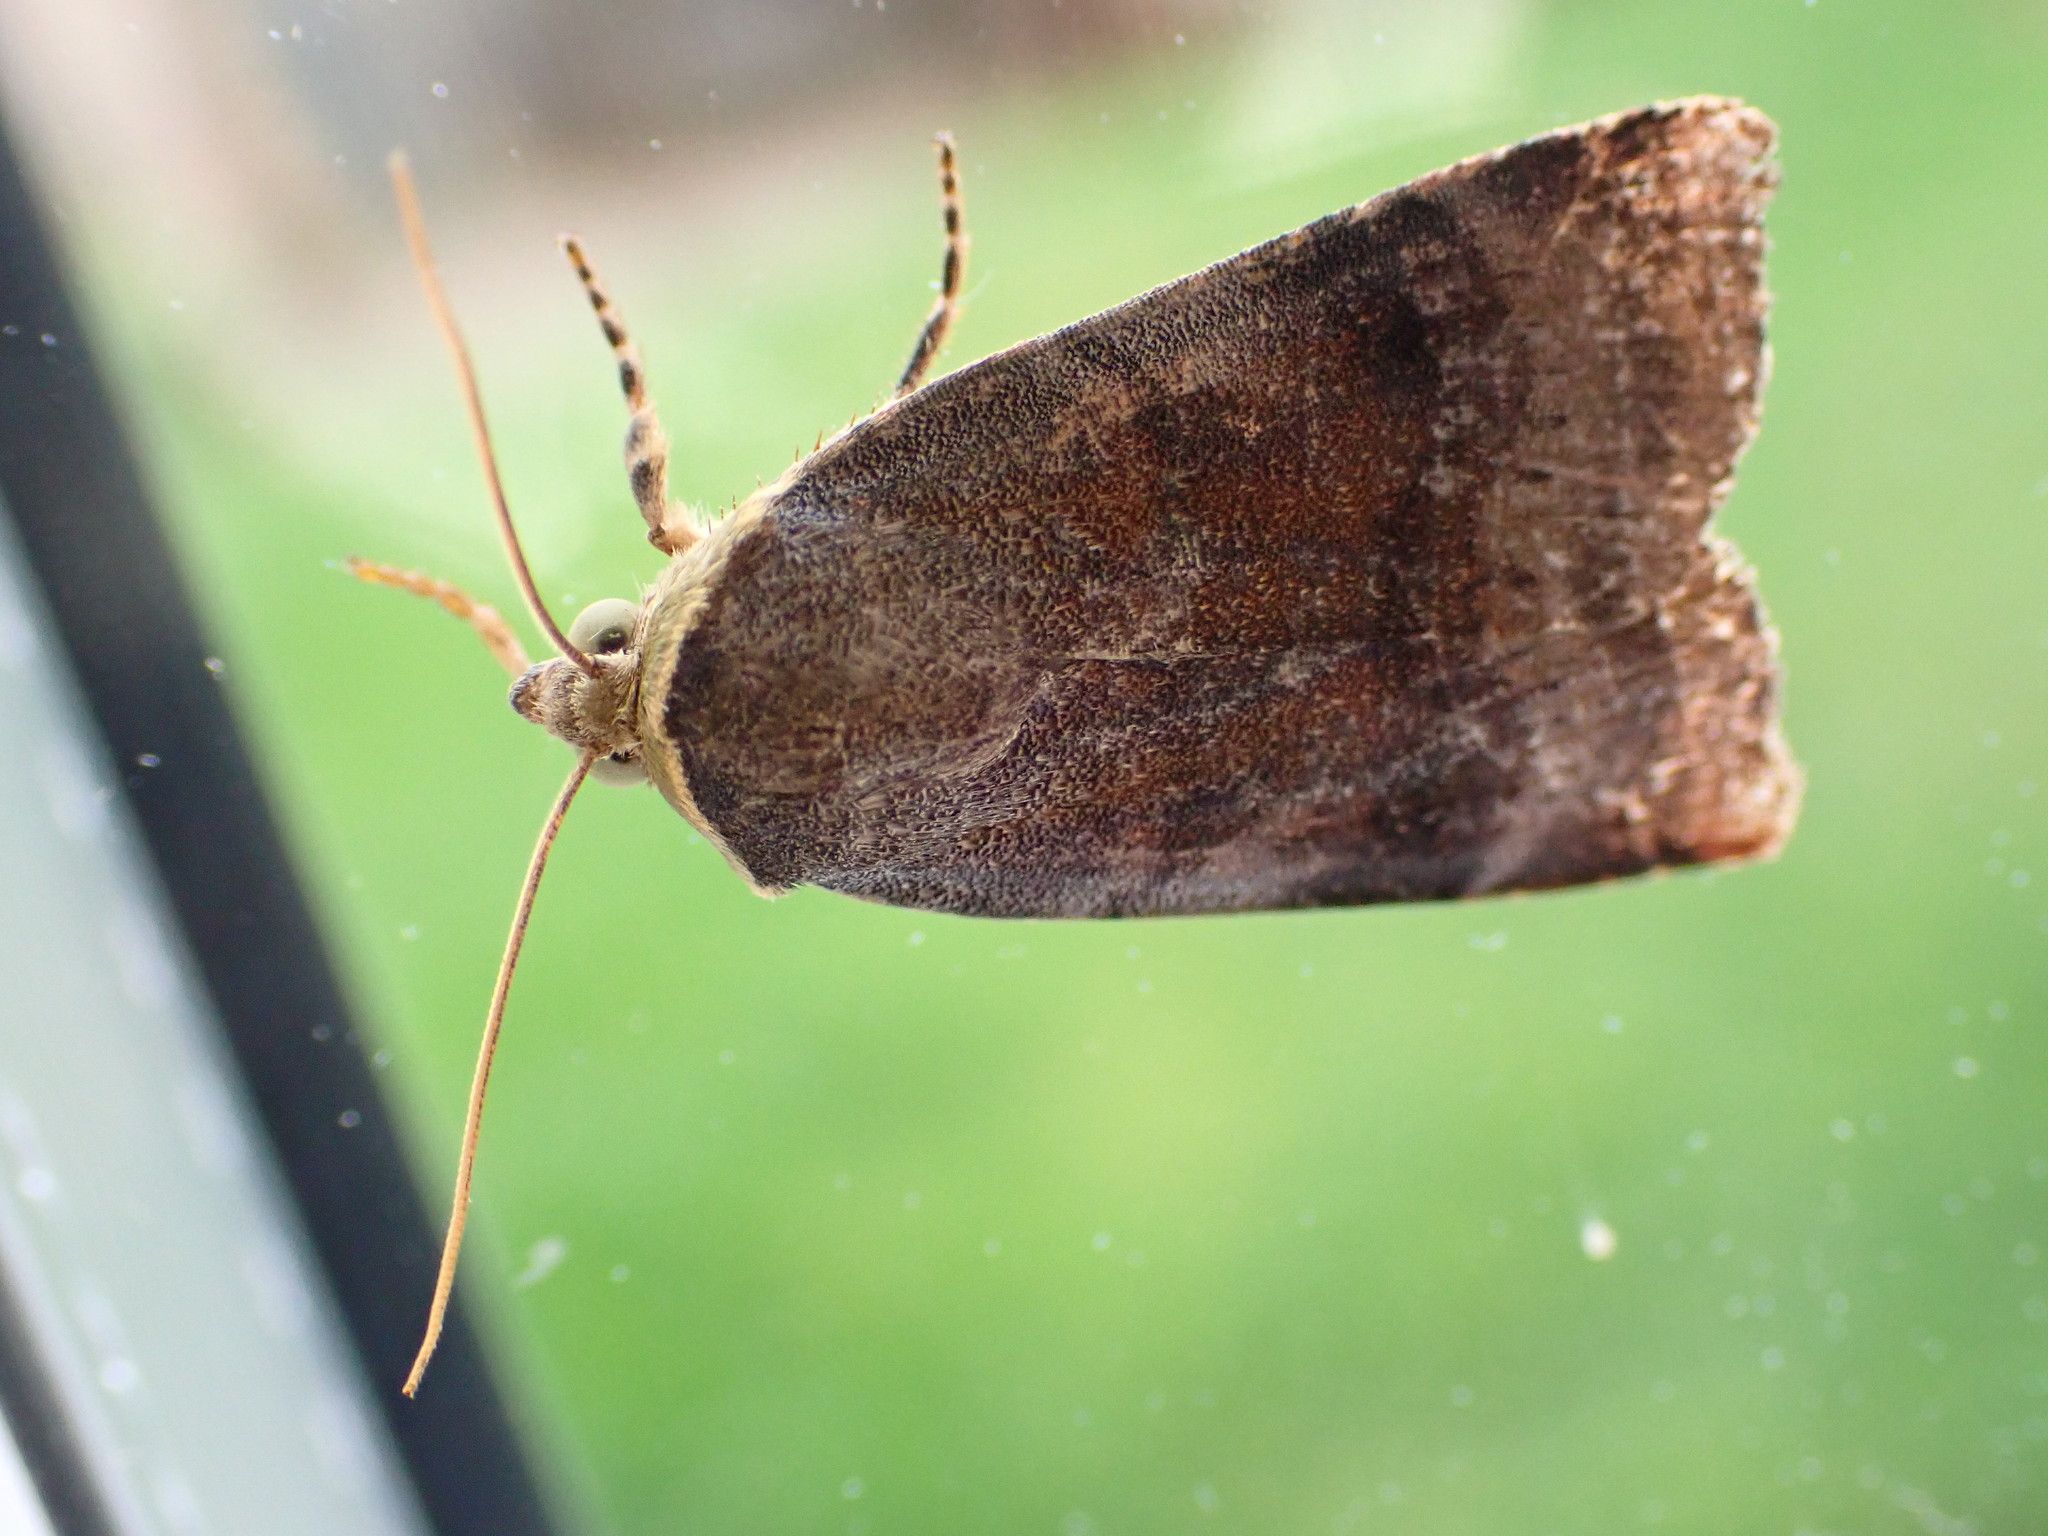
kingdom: Animalia
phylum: Arthropoda
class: Insecta
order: Lepidoptera
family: Noctuidae
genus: Noctua
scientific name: Noctua janthe
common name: Lesser broad-bordered yellow underwing
